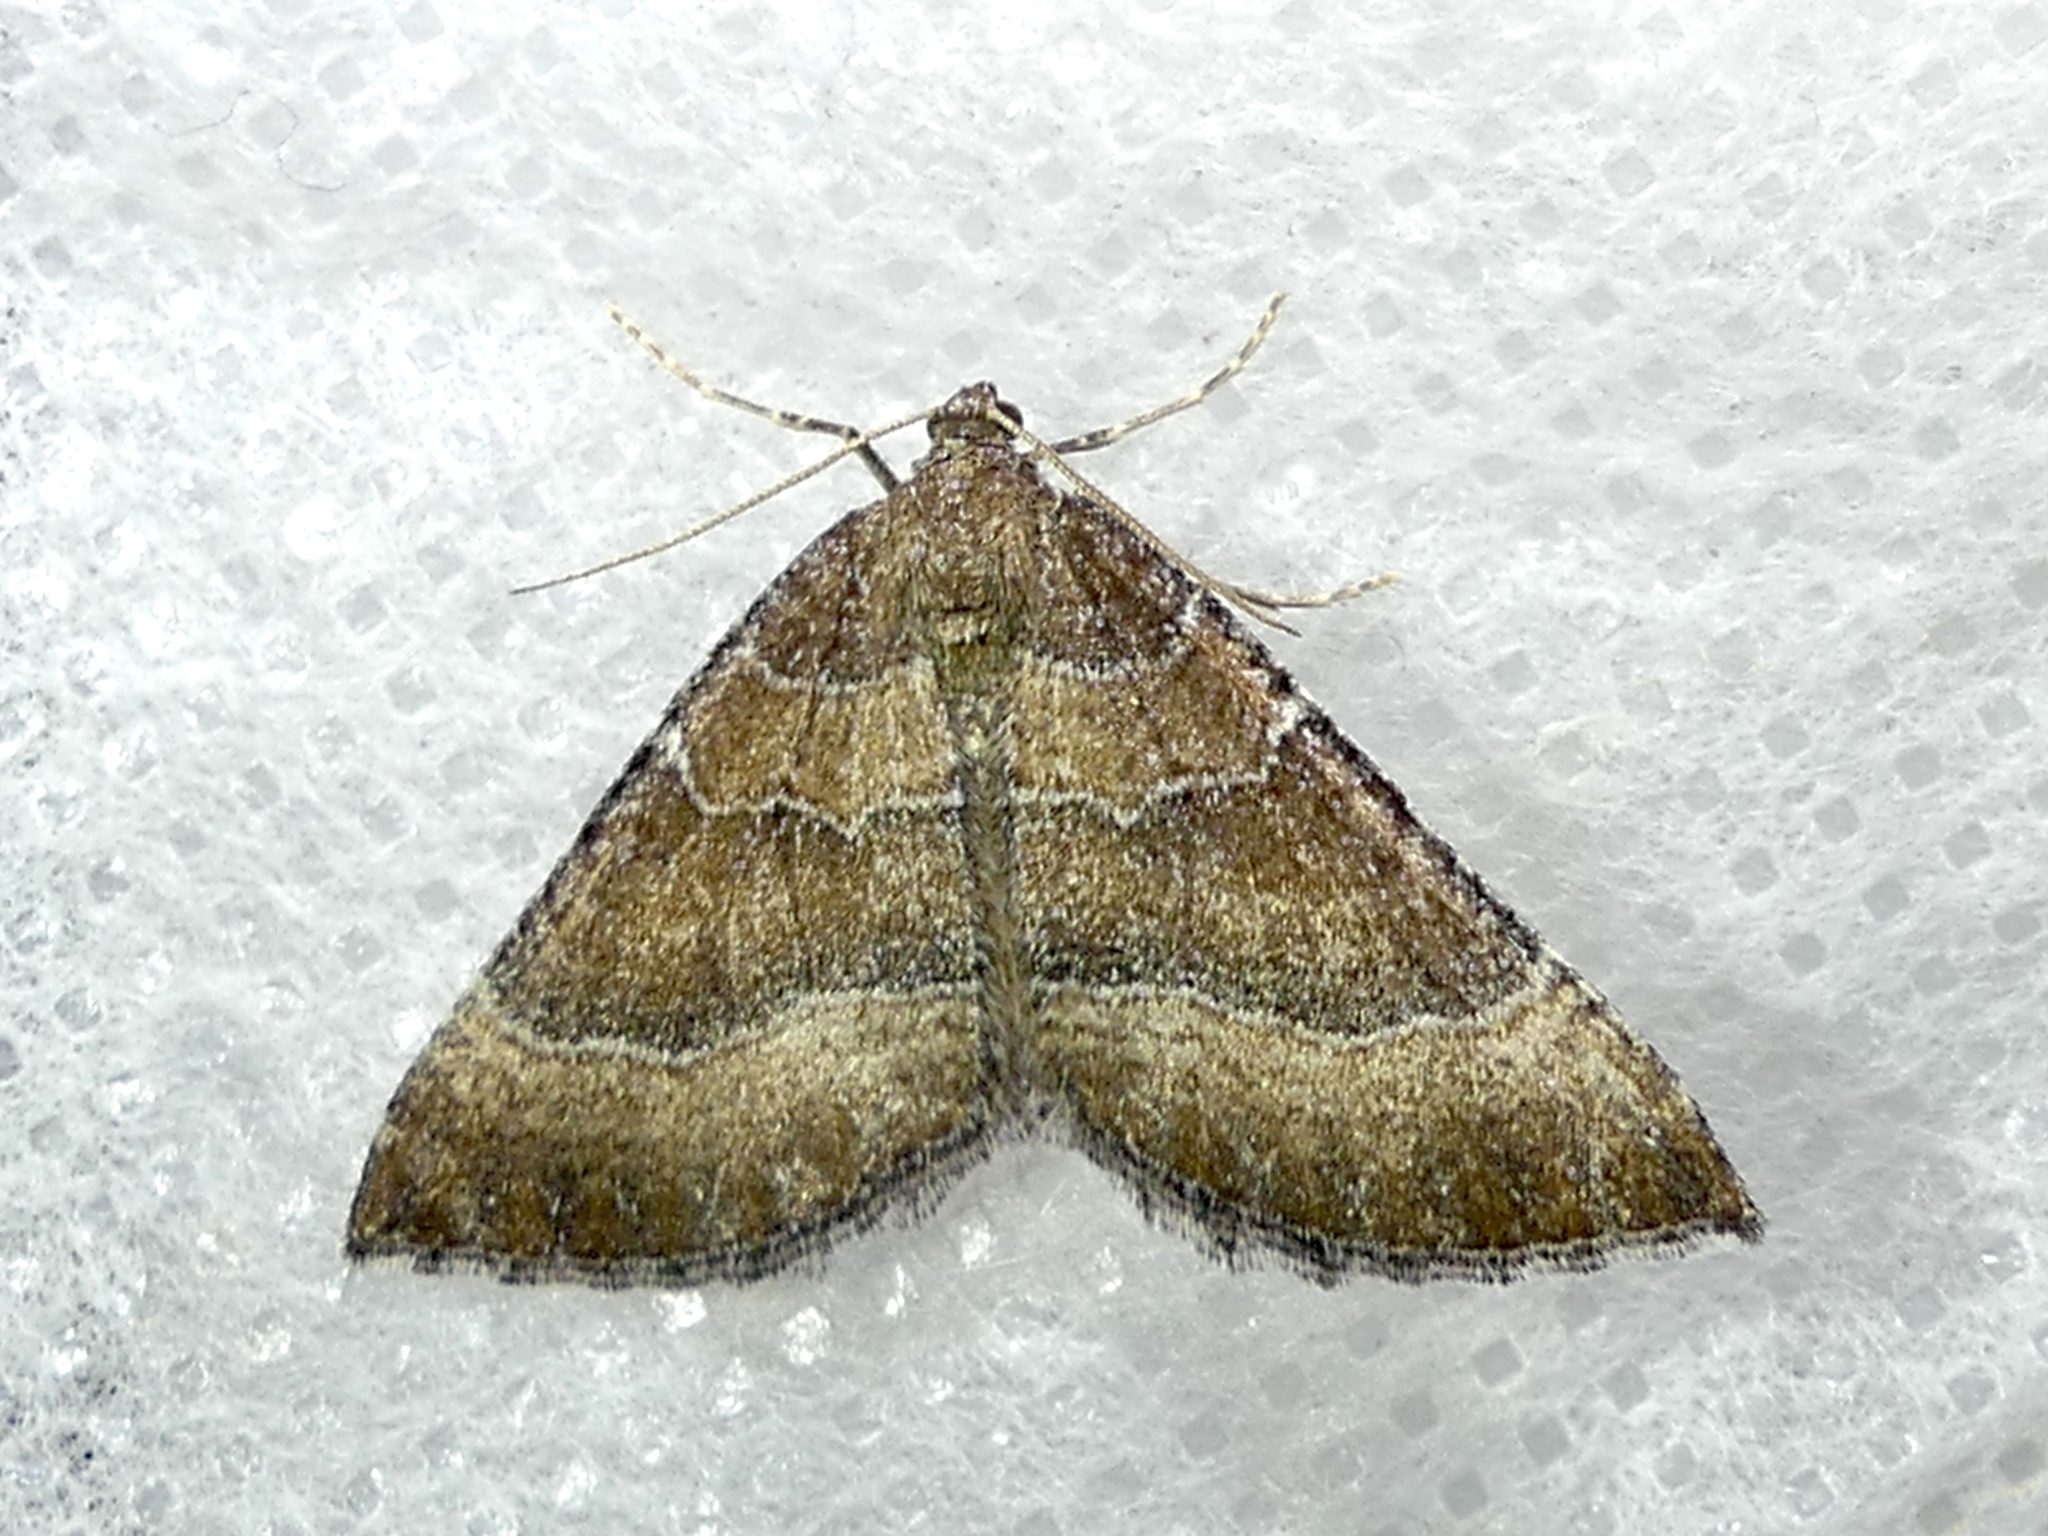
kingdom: Animalia
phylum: Arthropoda
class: Insecta
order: Lepidoptera
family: Geometridae
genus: Larentia
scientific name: Larentia clavaria
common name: Mallow
